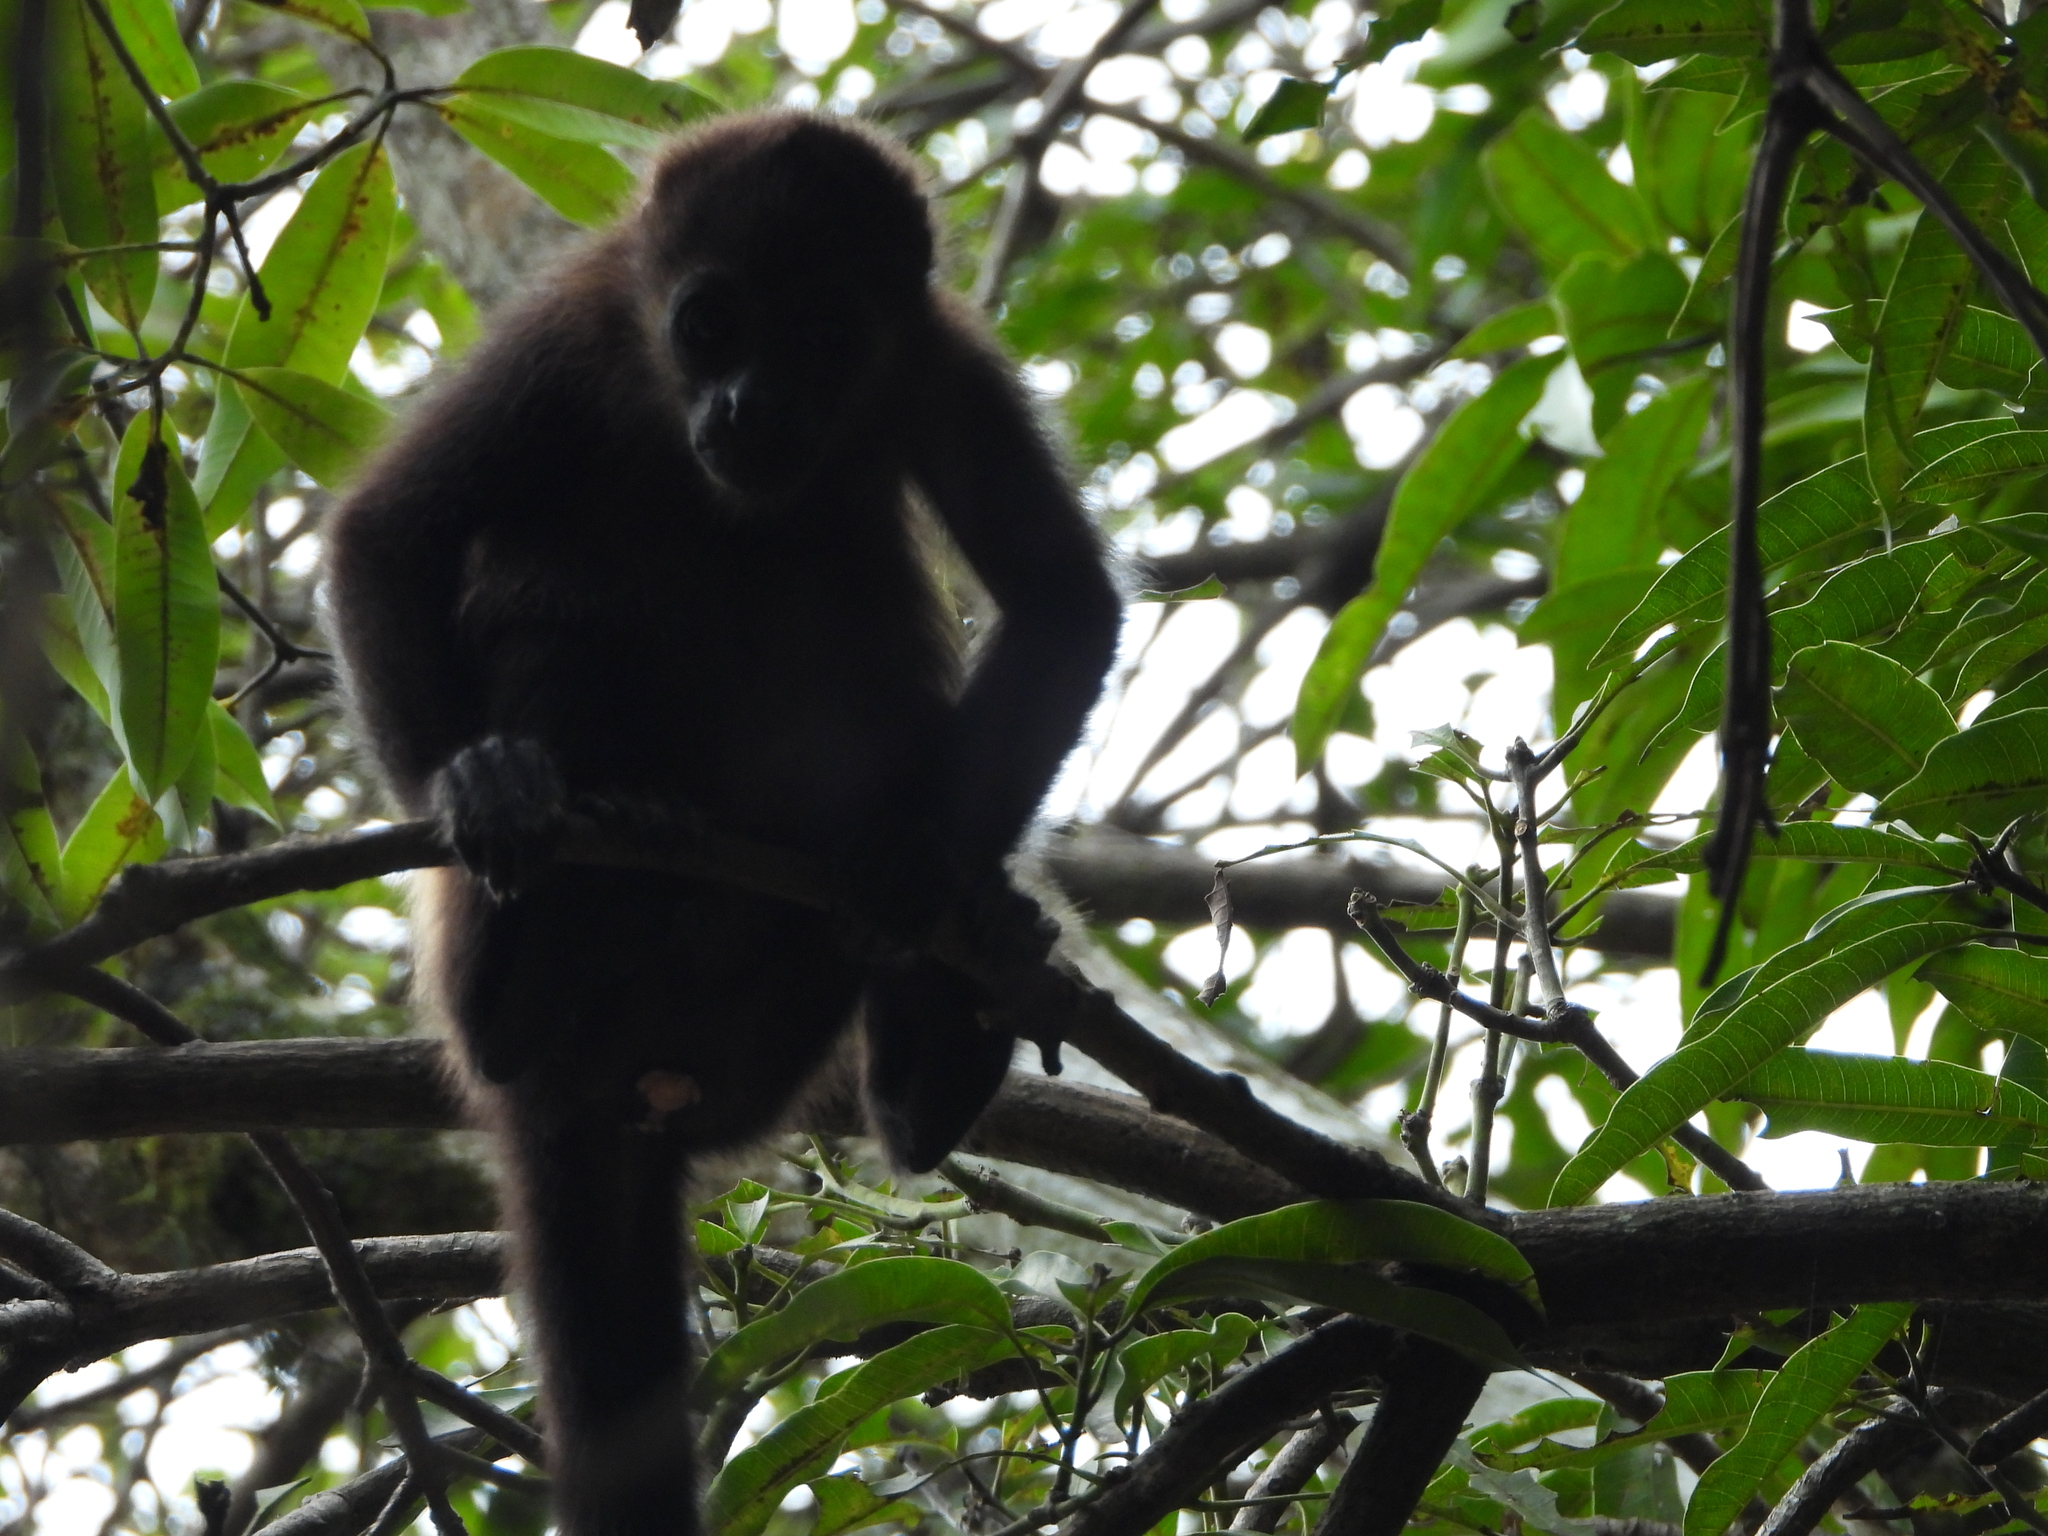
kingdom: Animalia
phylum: Chordata
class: Mammalia
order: Primates
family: Atelidae
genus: Alouatta
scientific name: Alouatta palliata
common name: Mantled howler
